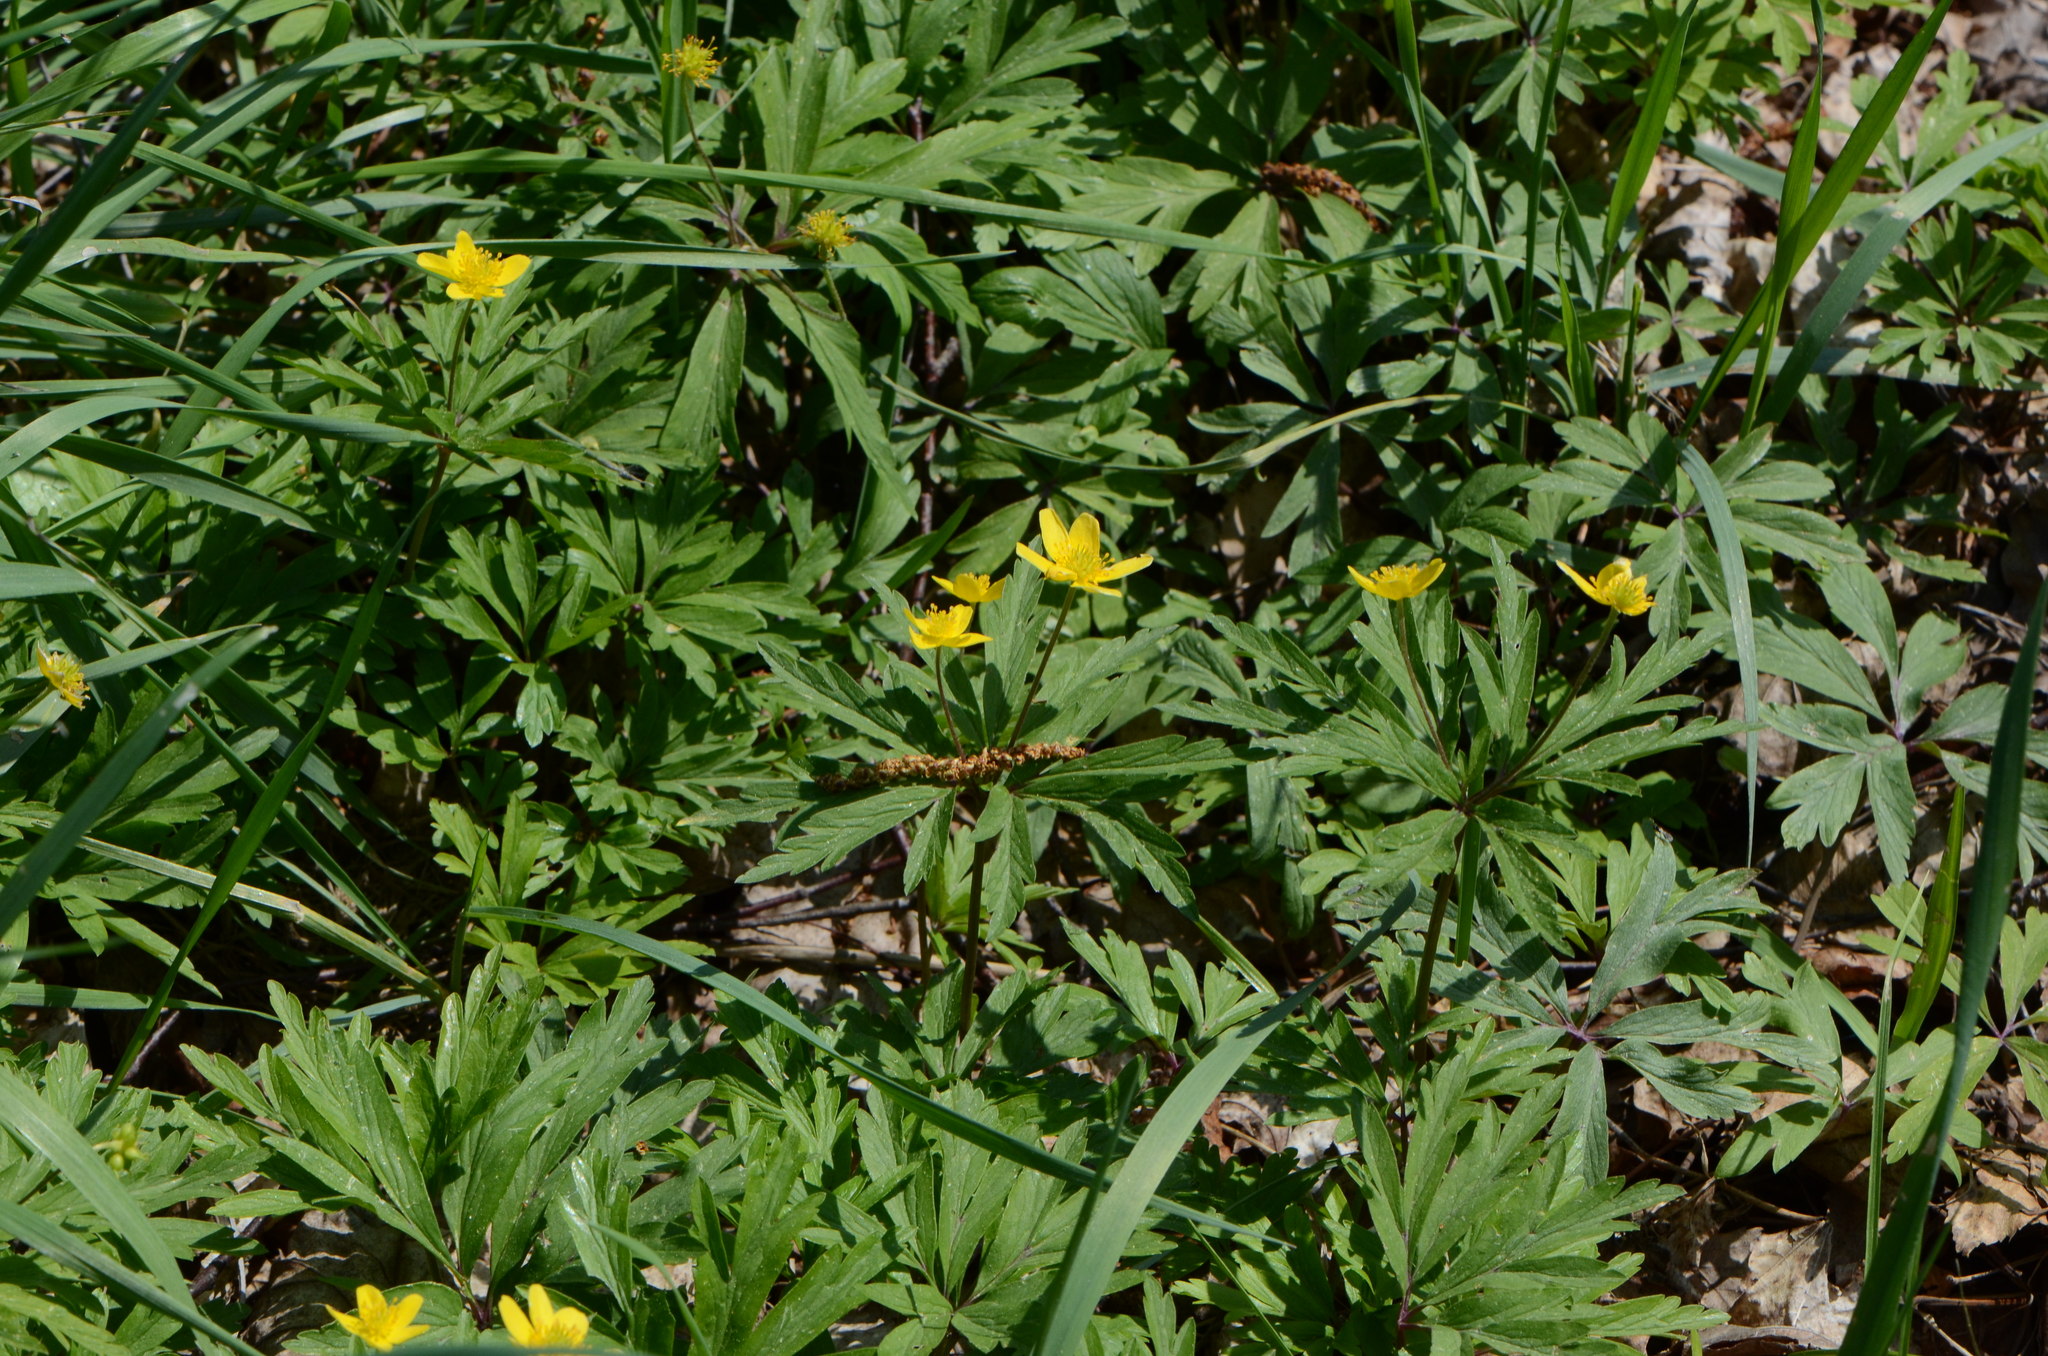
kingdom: Plantae
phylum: Tracheophyta
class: Magnoliopsida
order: Ranunculales
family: Ranunculaceae
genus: Anemone
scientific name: Anemone ranunculoides
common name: Yellow anemone
